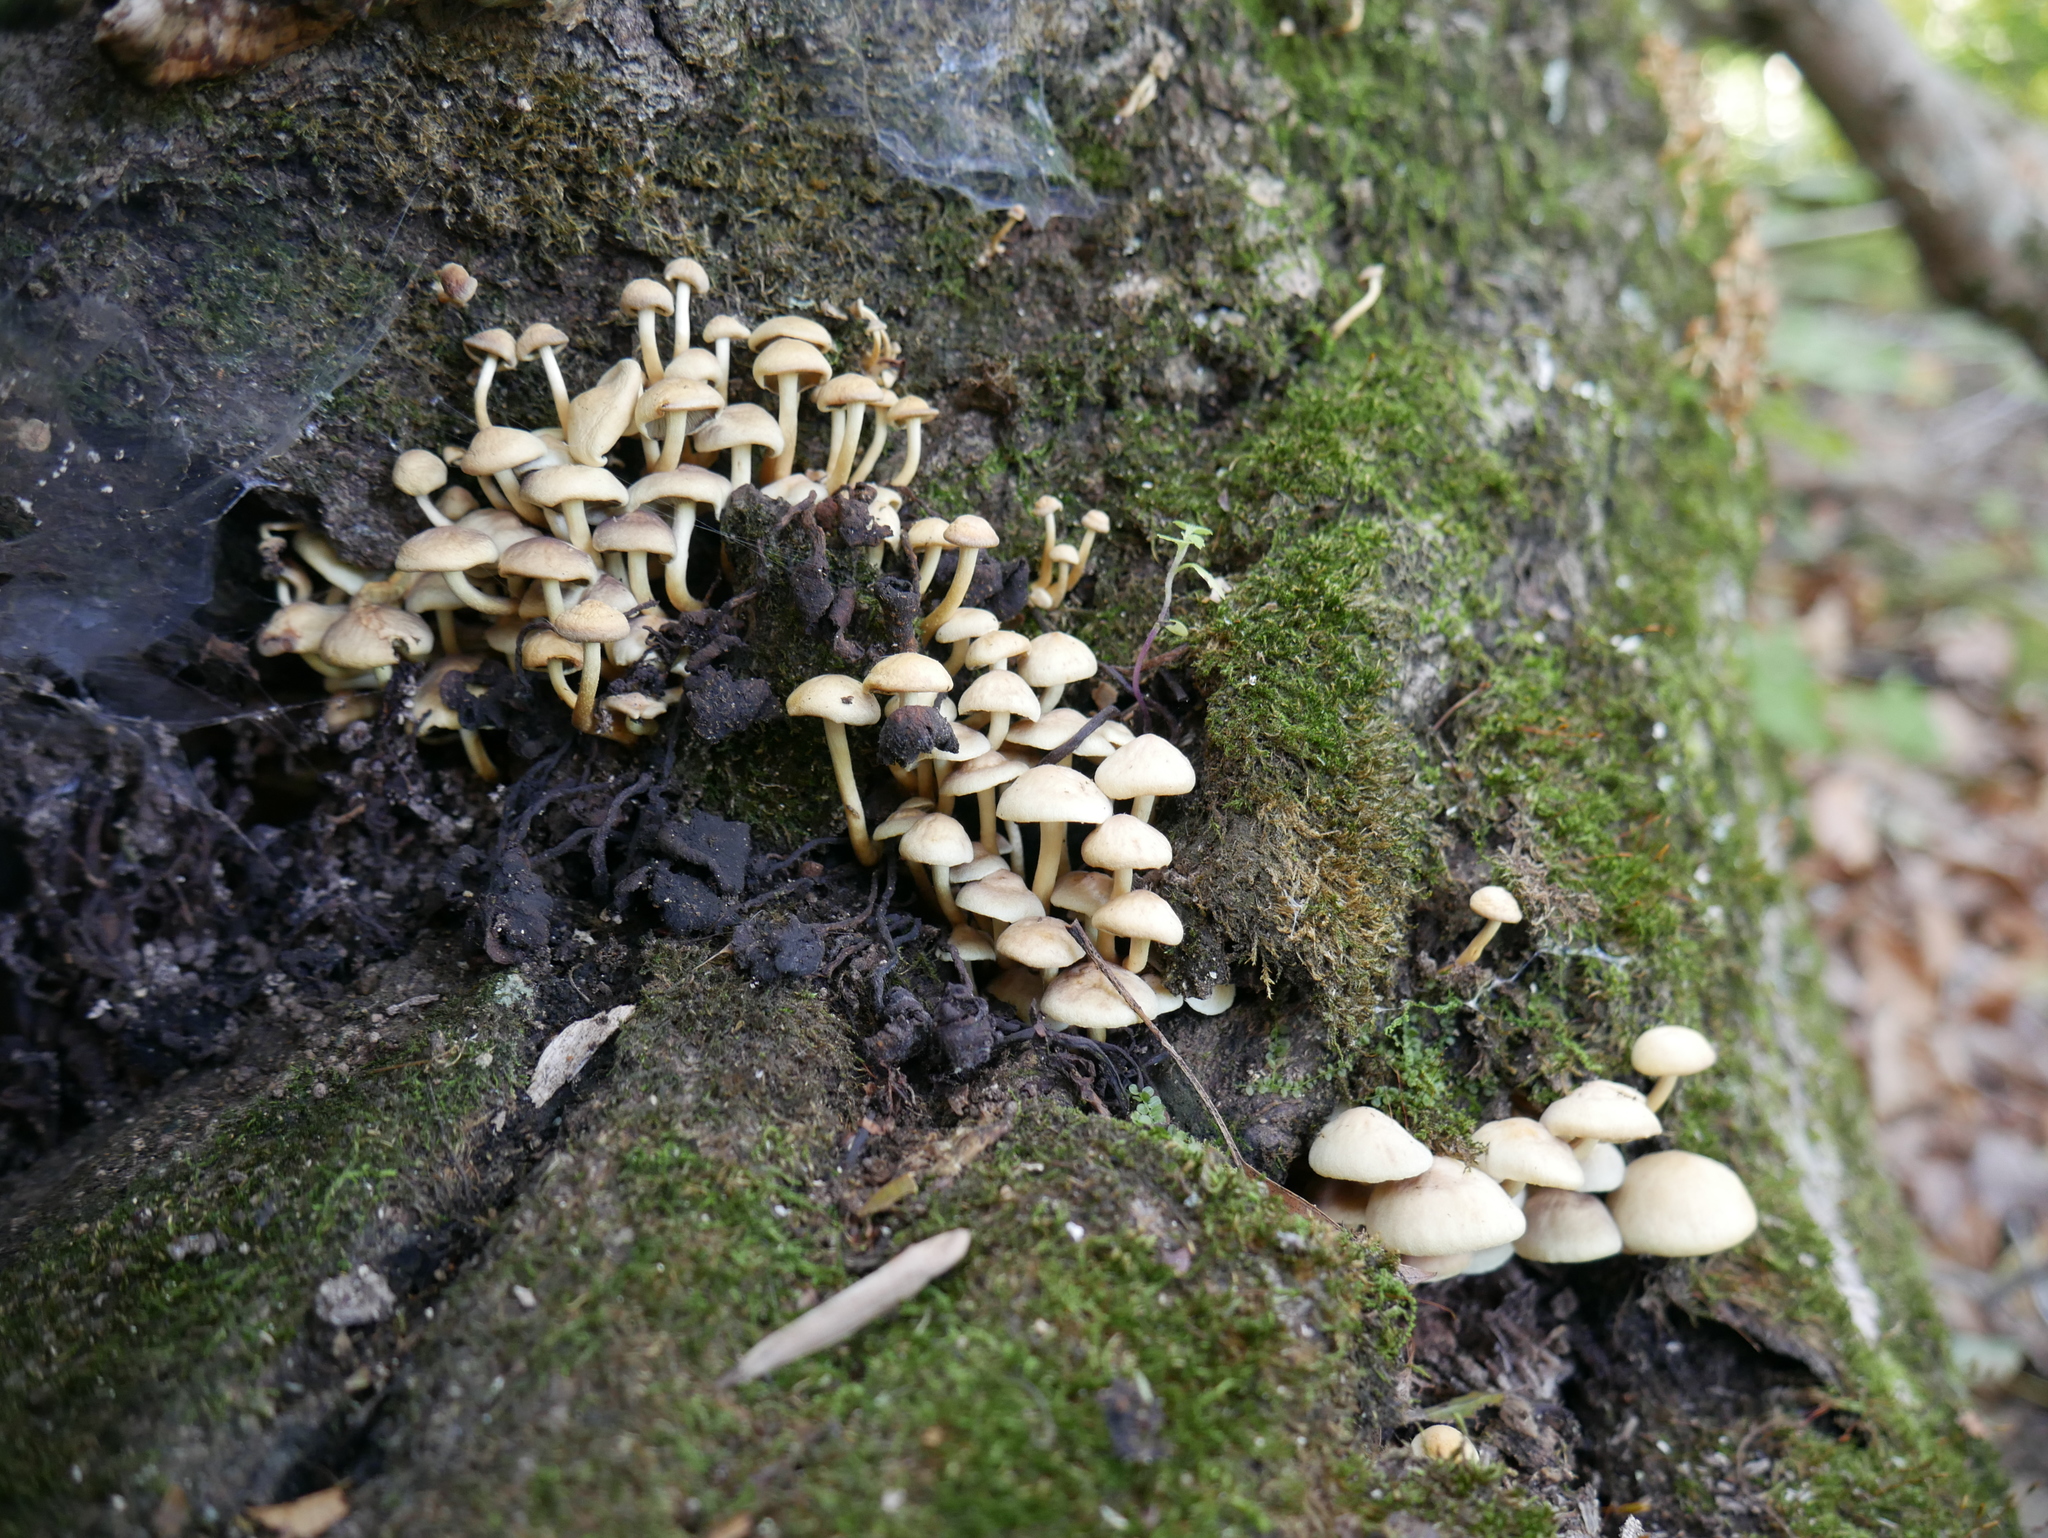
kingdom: Fungi
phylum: Basidiomycota
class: Agaricomycetes
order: Agaricales
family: Strophariaceae
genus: Hypholoma
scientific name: Hypholoma fasciculare
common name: Sulphur tuft
